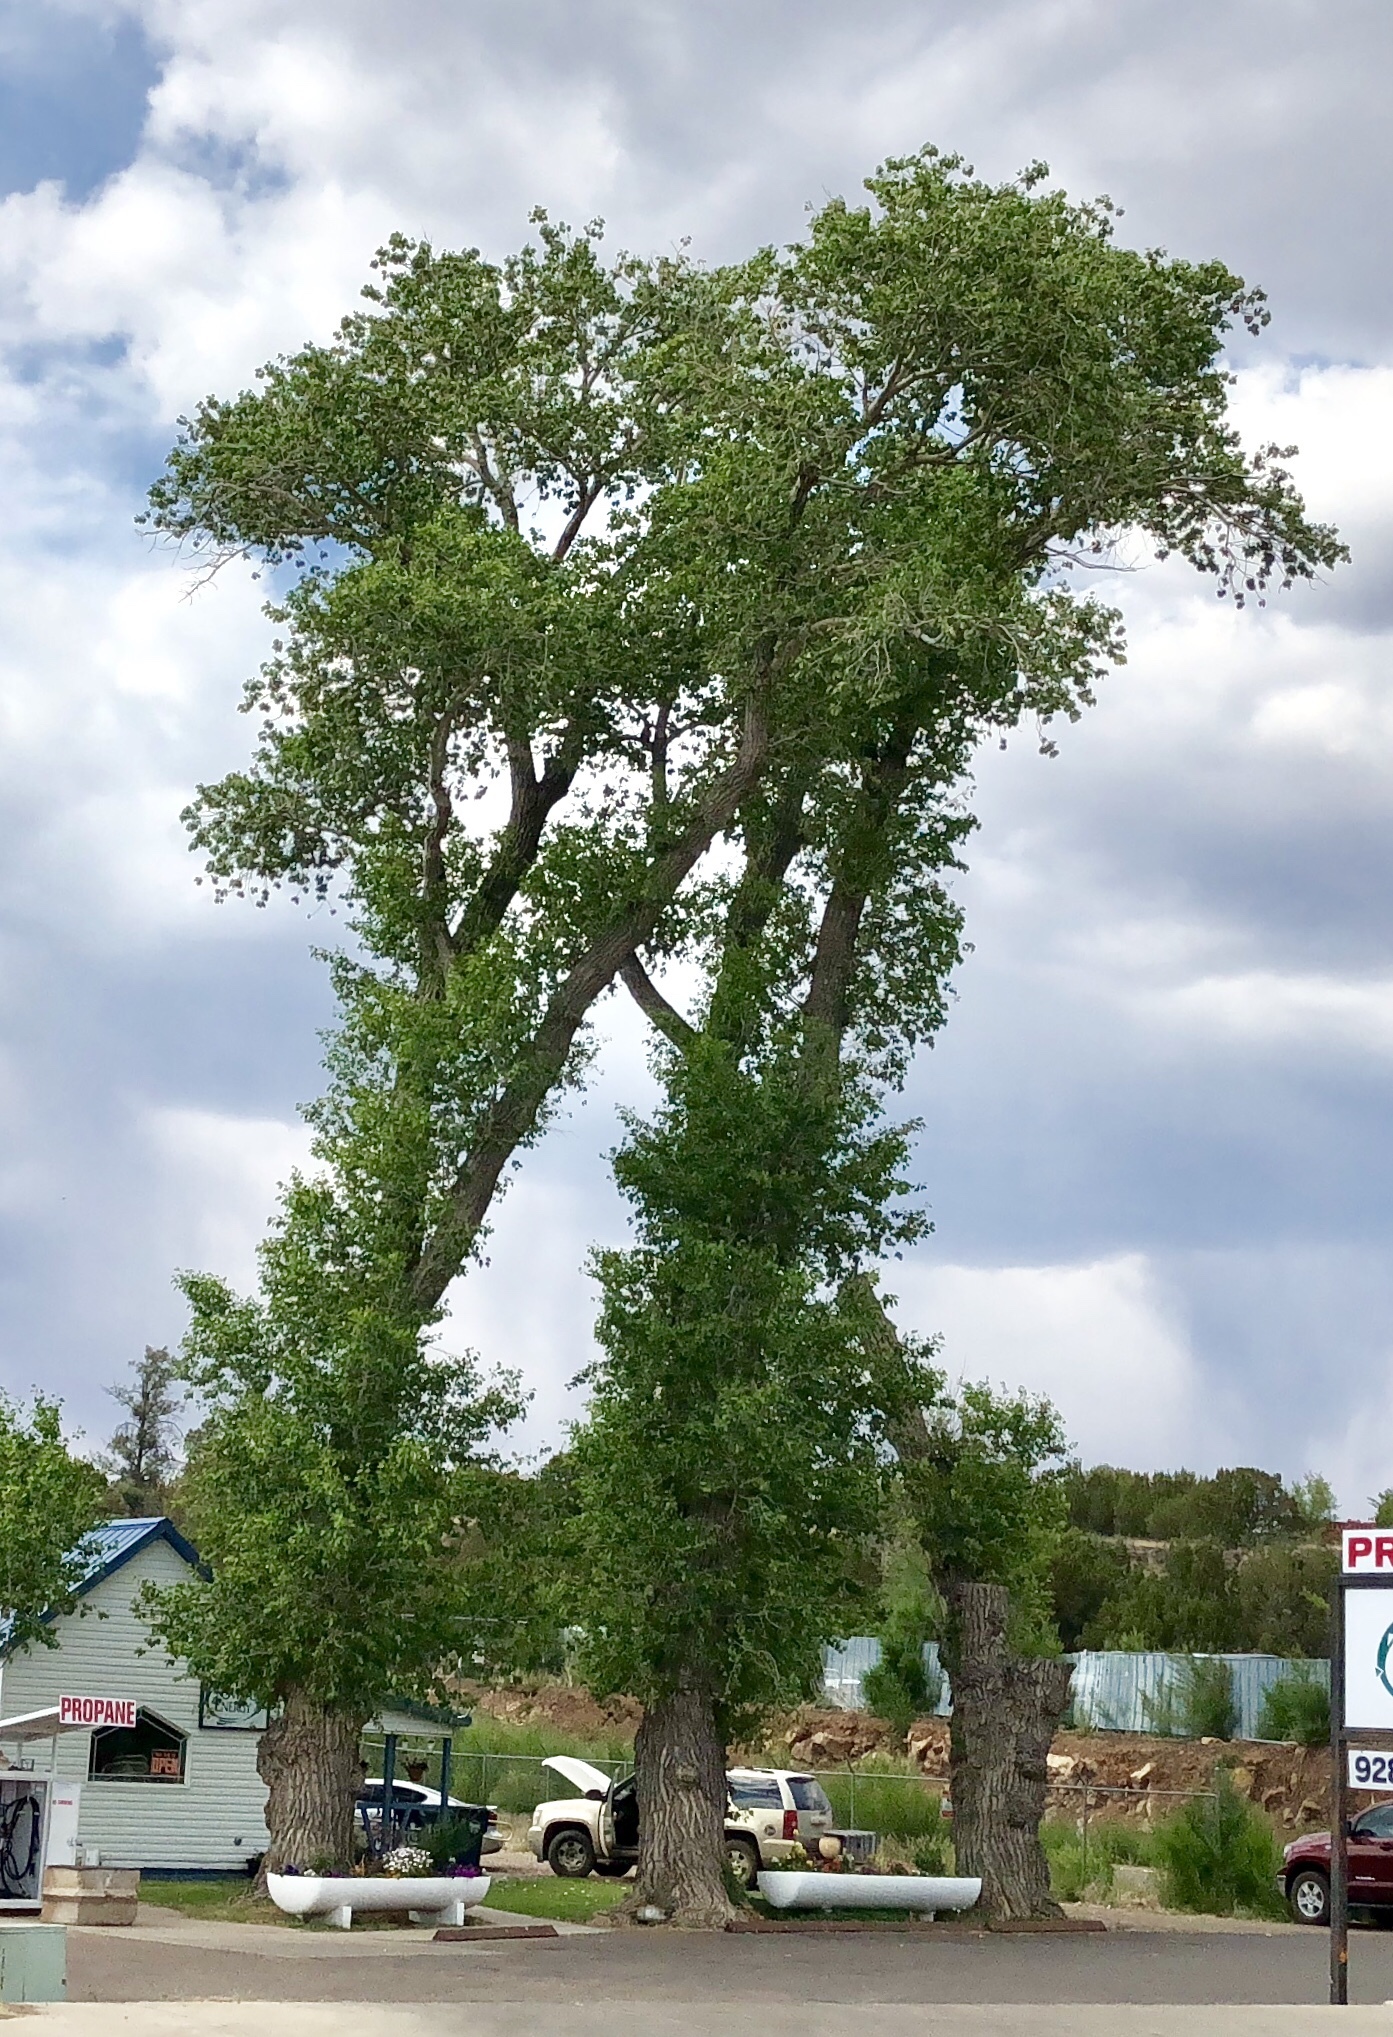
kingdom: Plantae
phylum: Tracheophyta
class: Magnoliopsida
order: Malpighiales
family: Salicaceae
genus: Populus
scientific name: Populus fremontii
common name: Fremont's cottonwood
